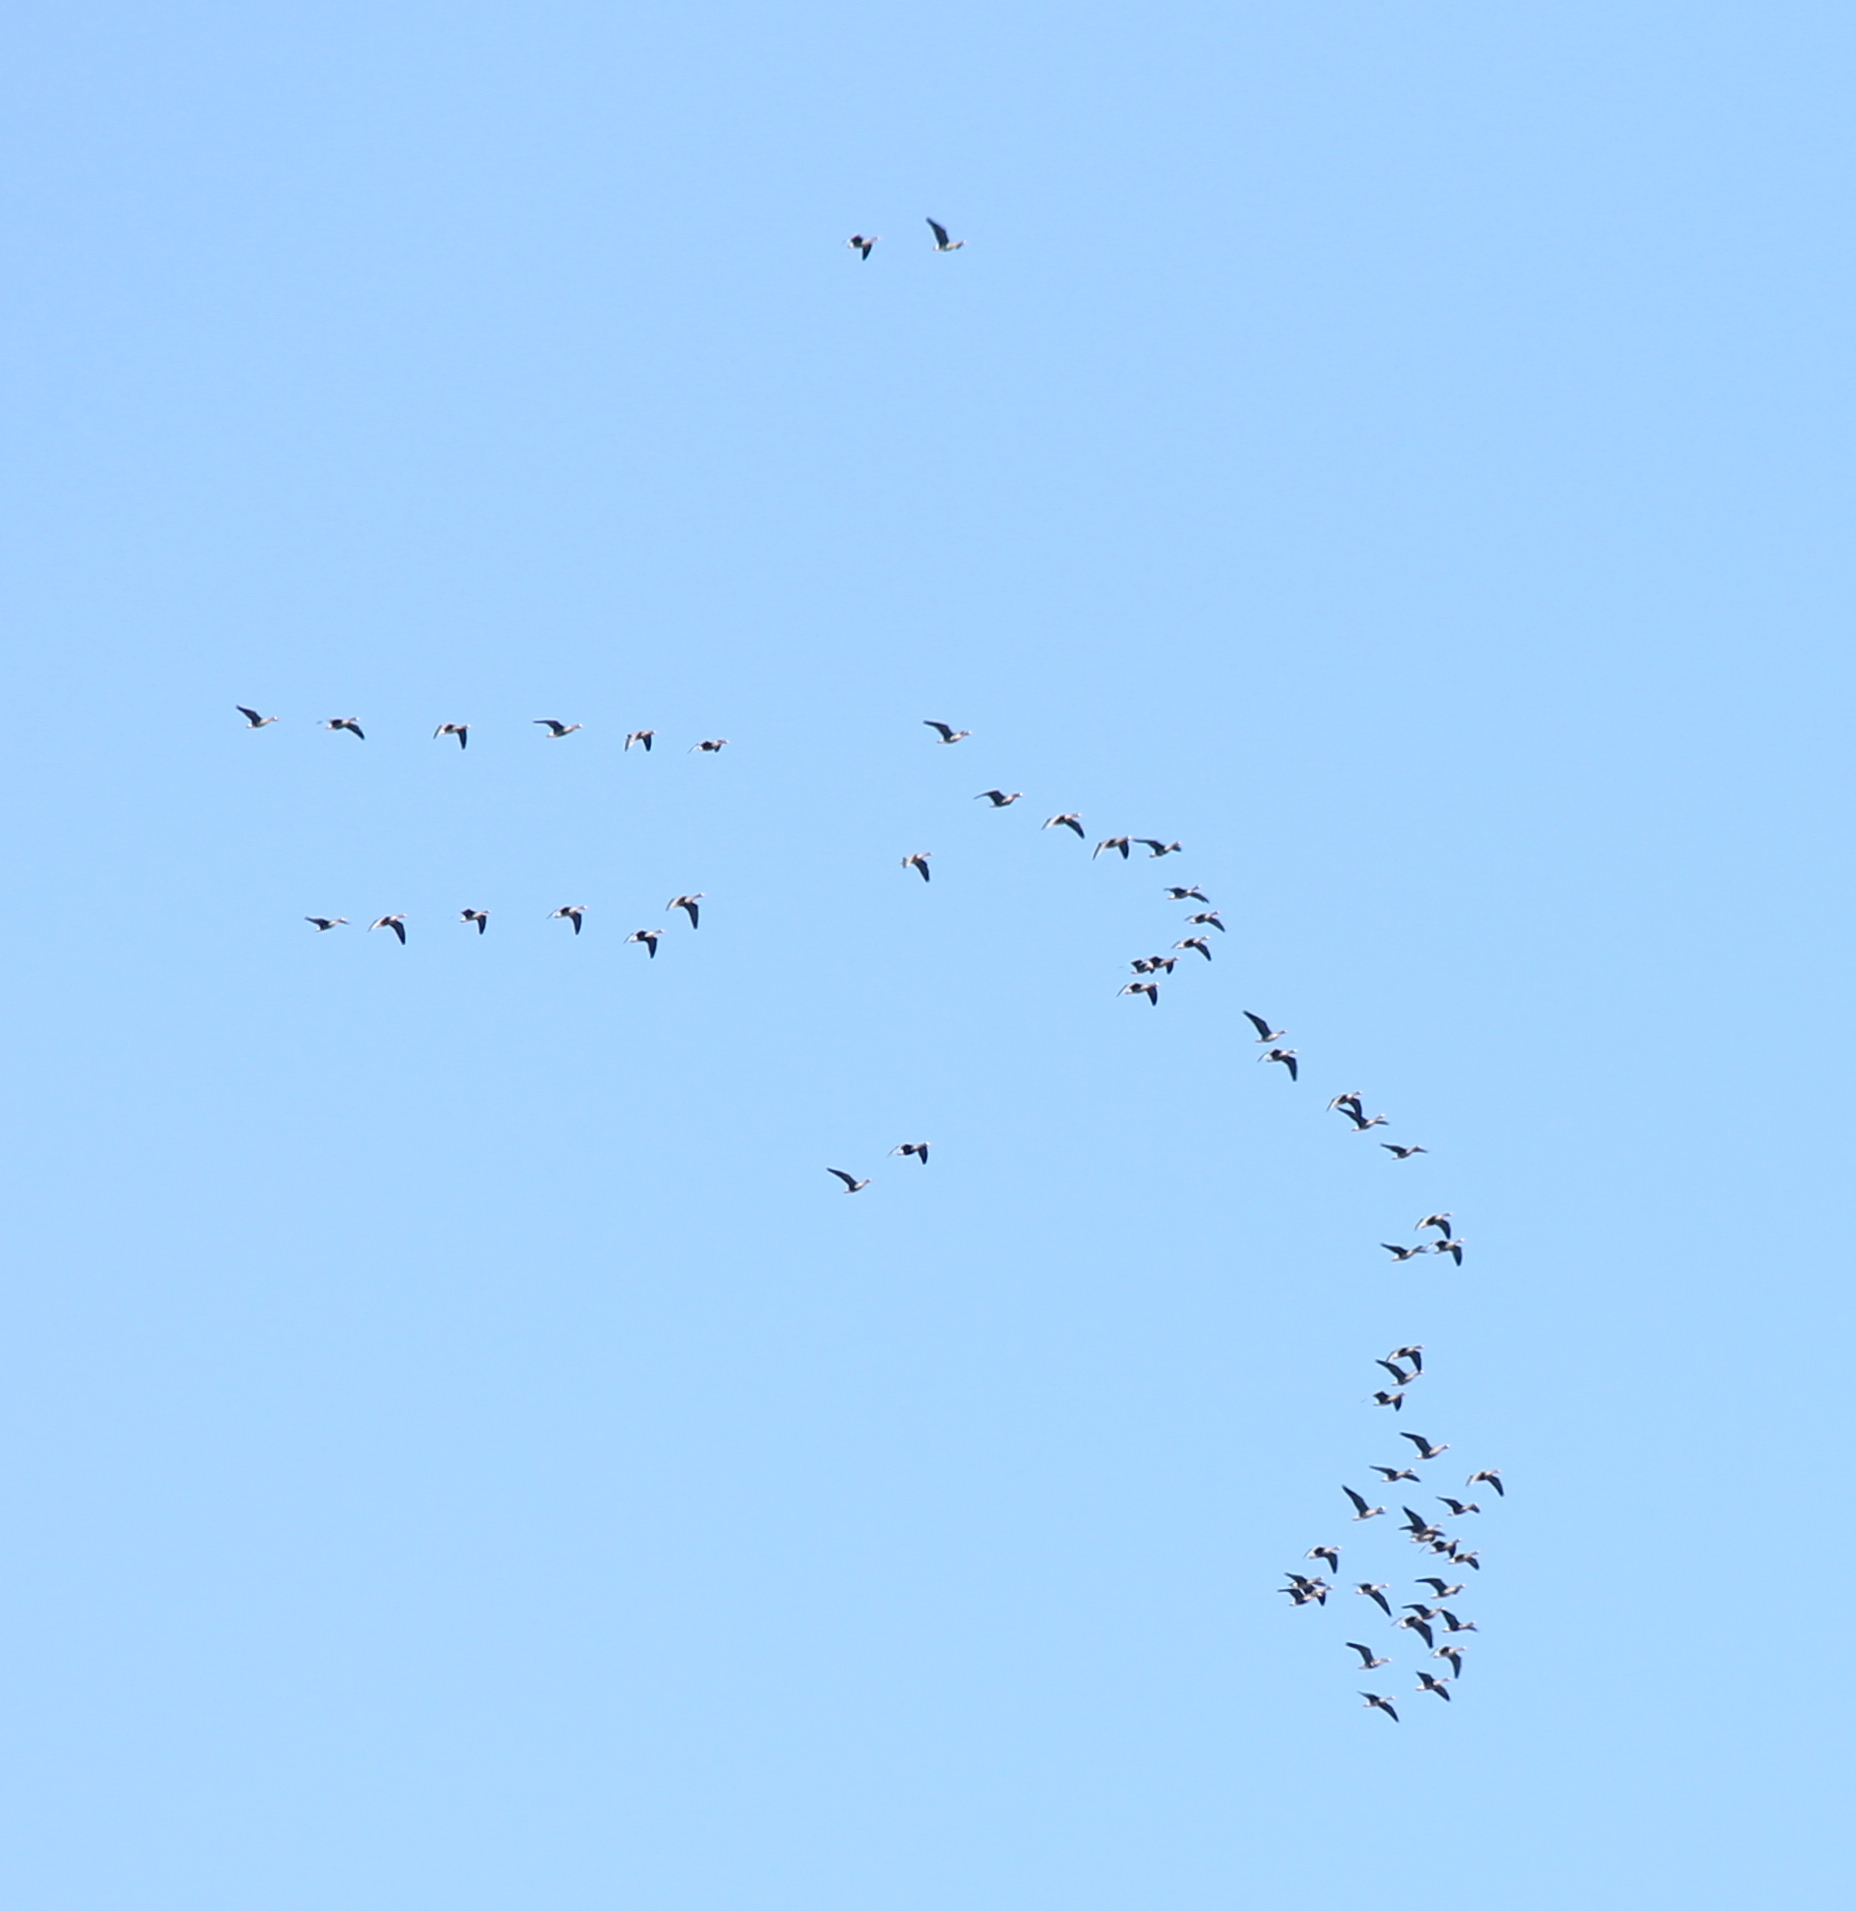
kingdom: Animalia
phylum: Chordata
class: Aves
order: Anseriformes
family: Anatidae
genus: Anser
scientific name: Anser albifrons
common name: Greater white-fronted goose
